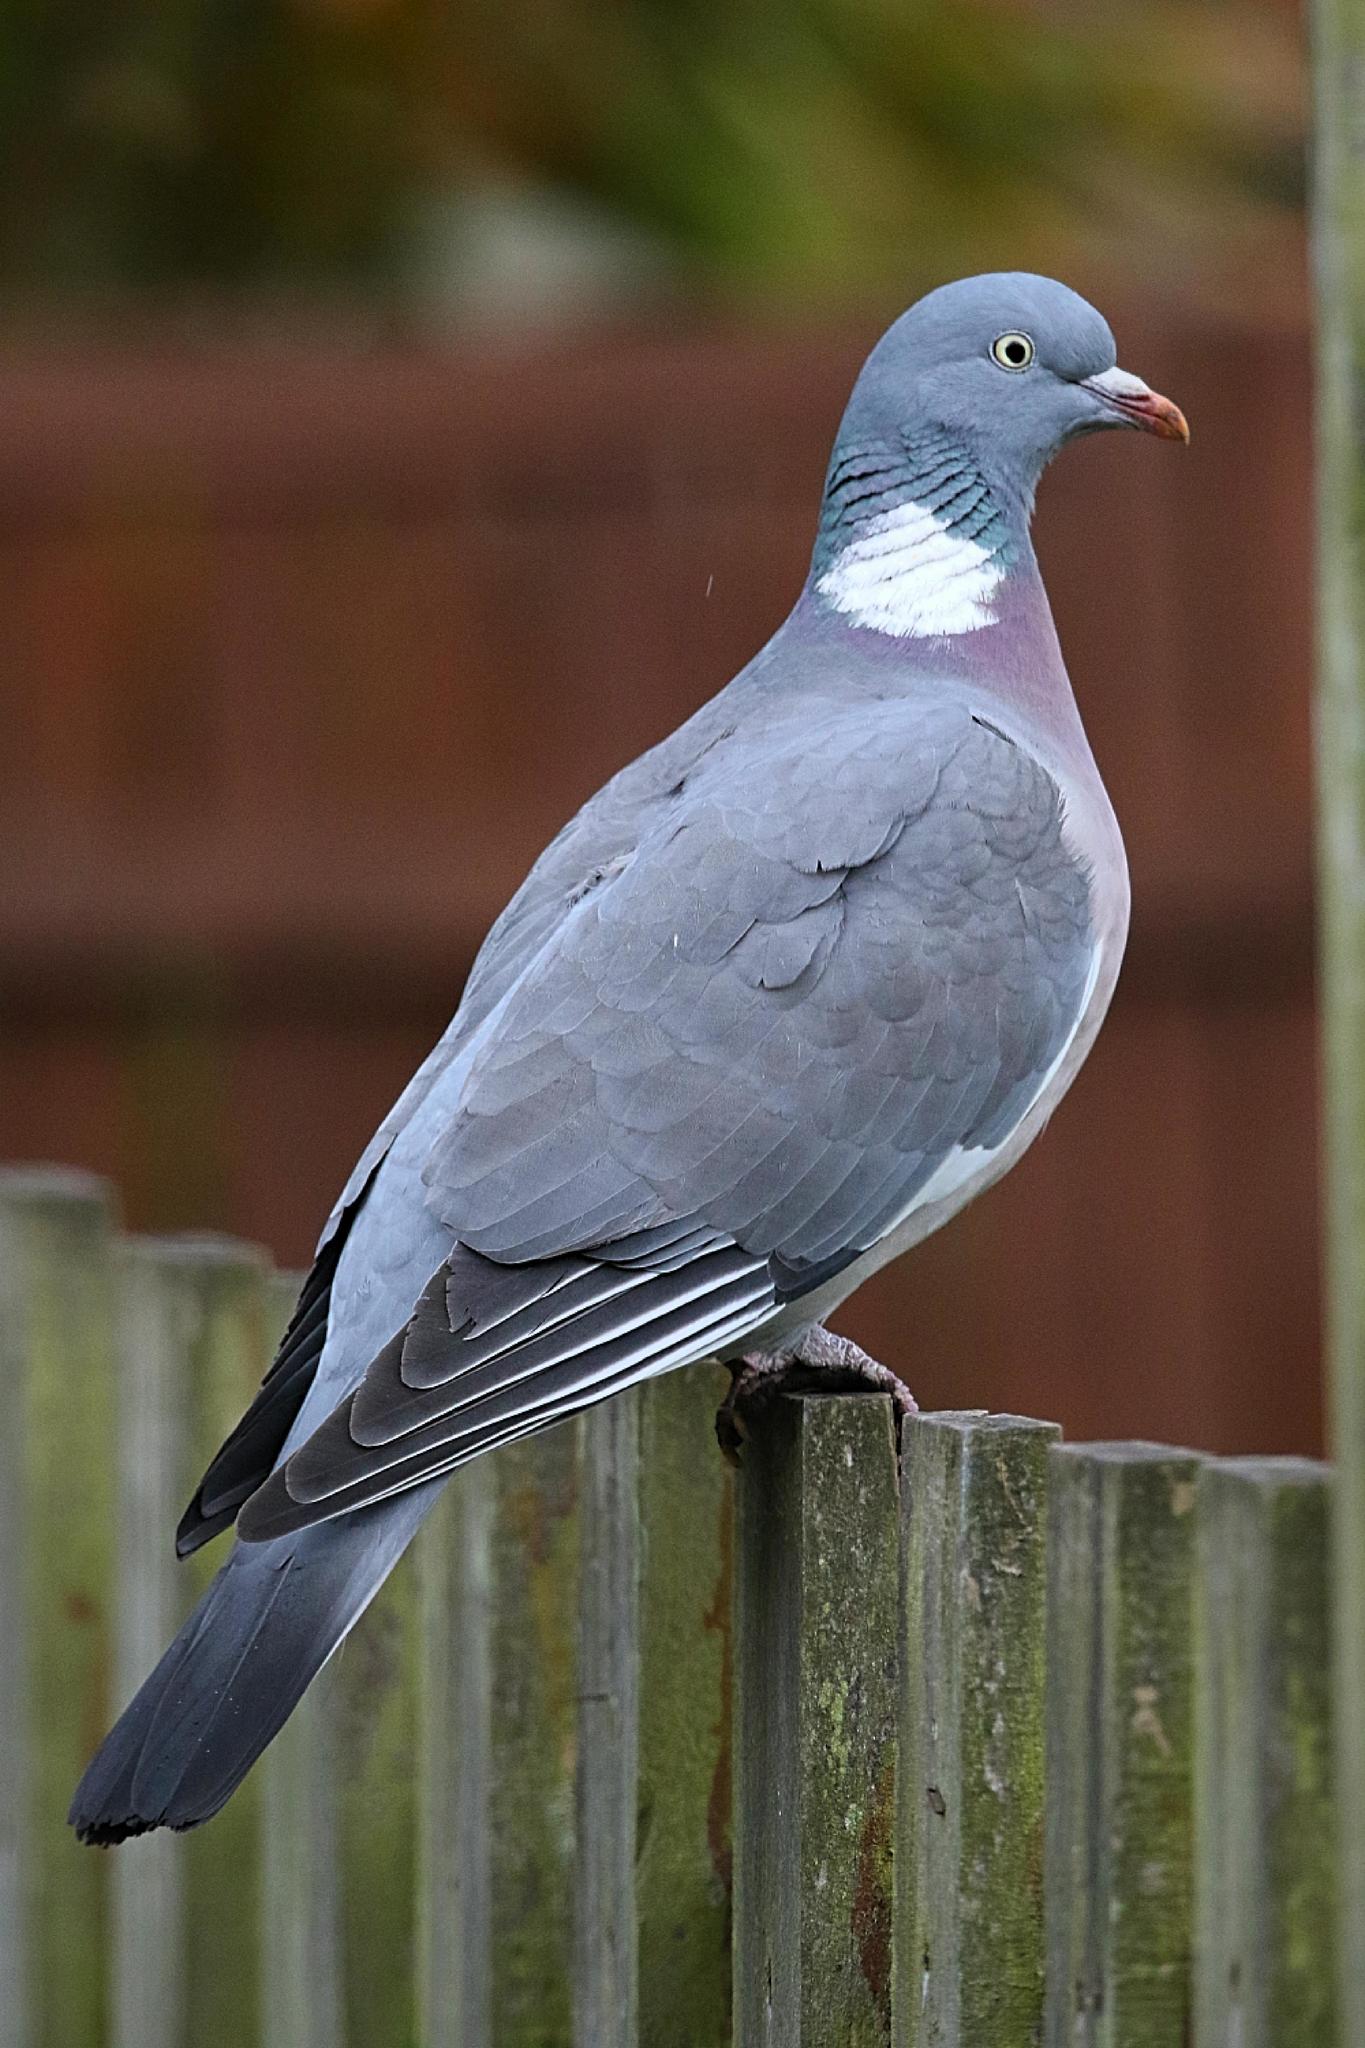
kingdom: Animalia
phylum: Chordata
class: Aves
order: Columbiformes
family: Columbidae
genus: Columba
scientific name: Columba palumbus
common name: Common wood pigeon
